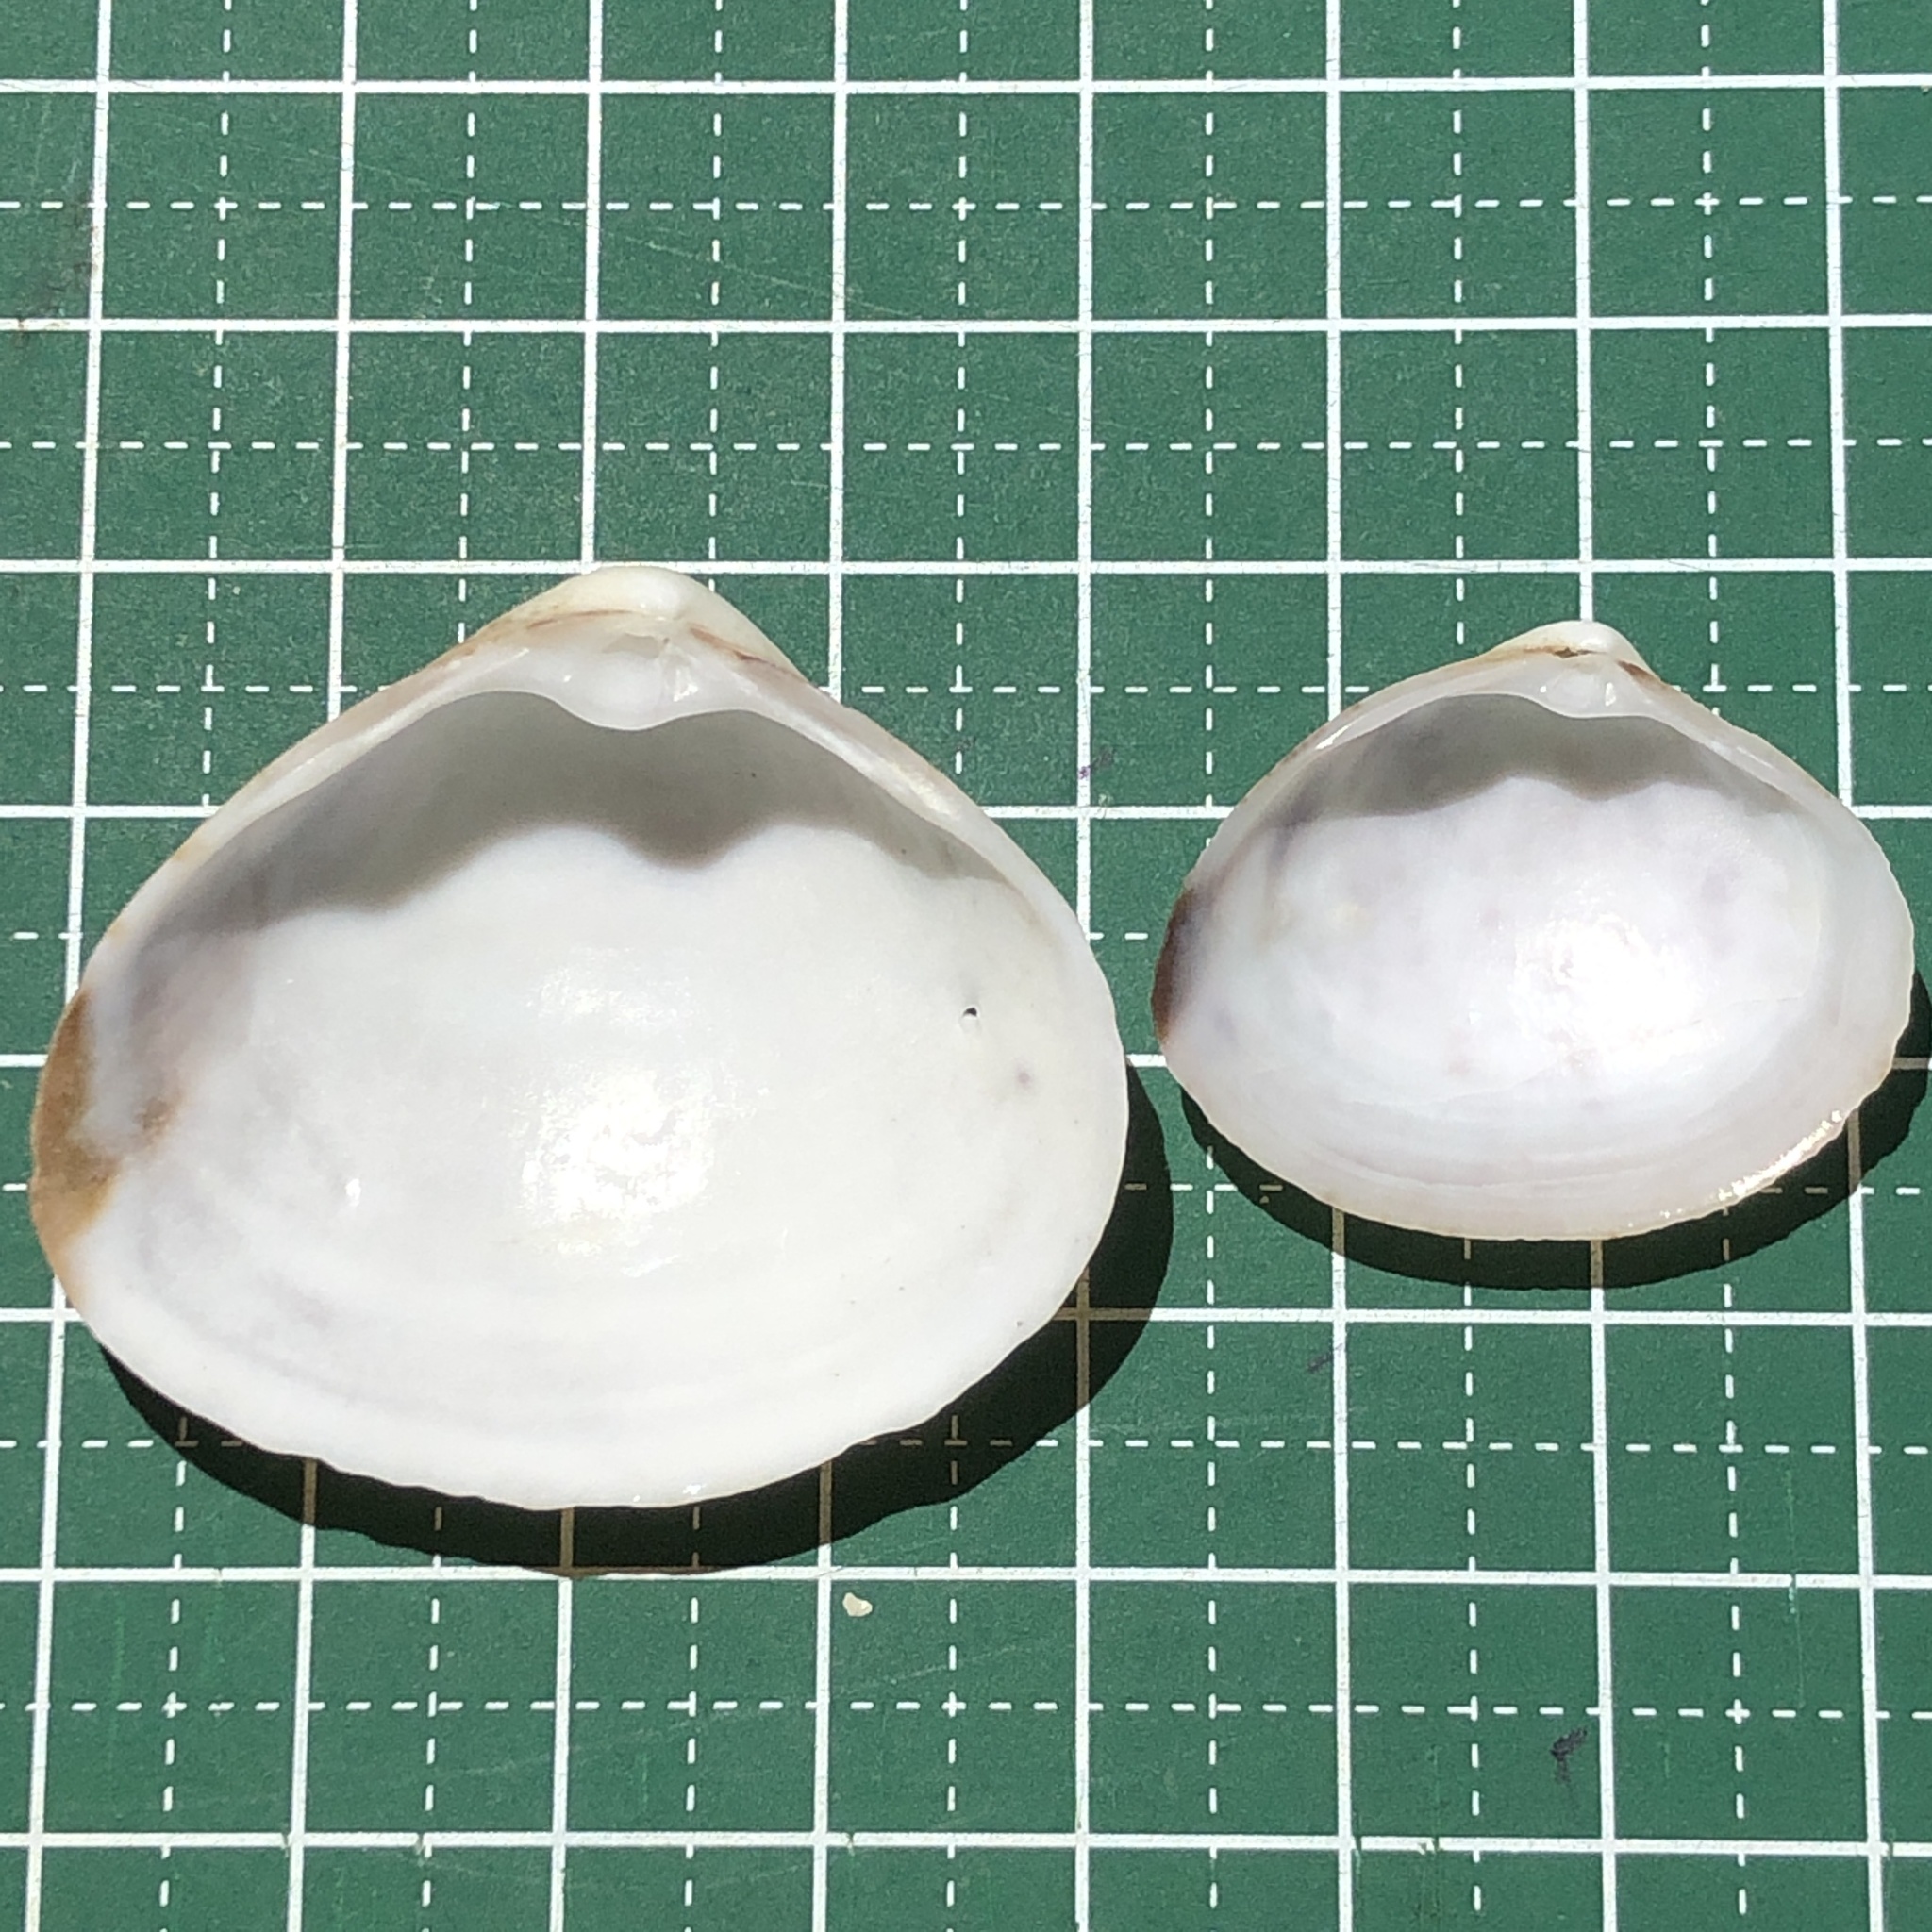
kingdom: Animalia
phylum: Mollusca
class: Bivalvia
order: Venerida
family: Mactridae
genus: Mactra
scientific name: Mactra maculata
